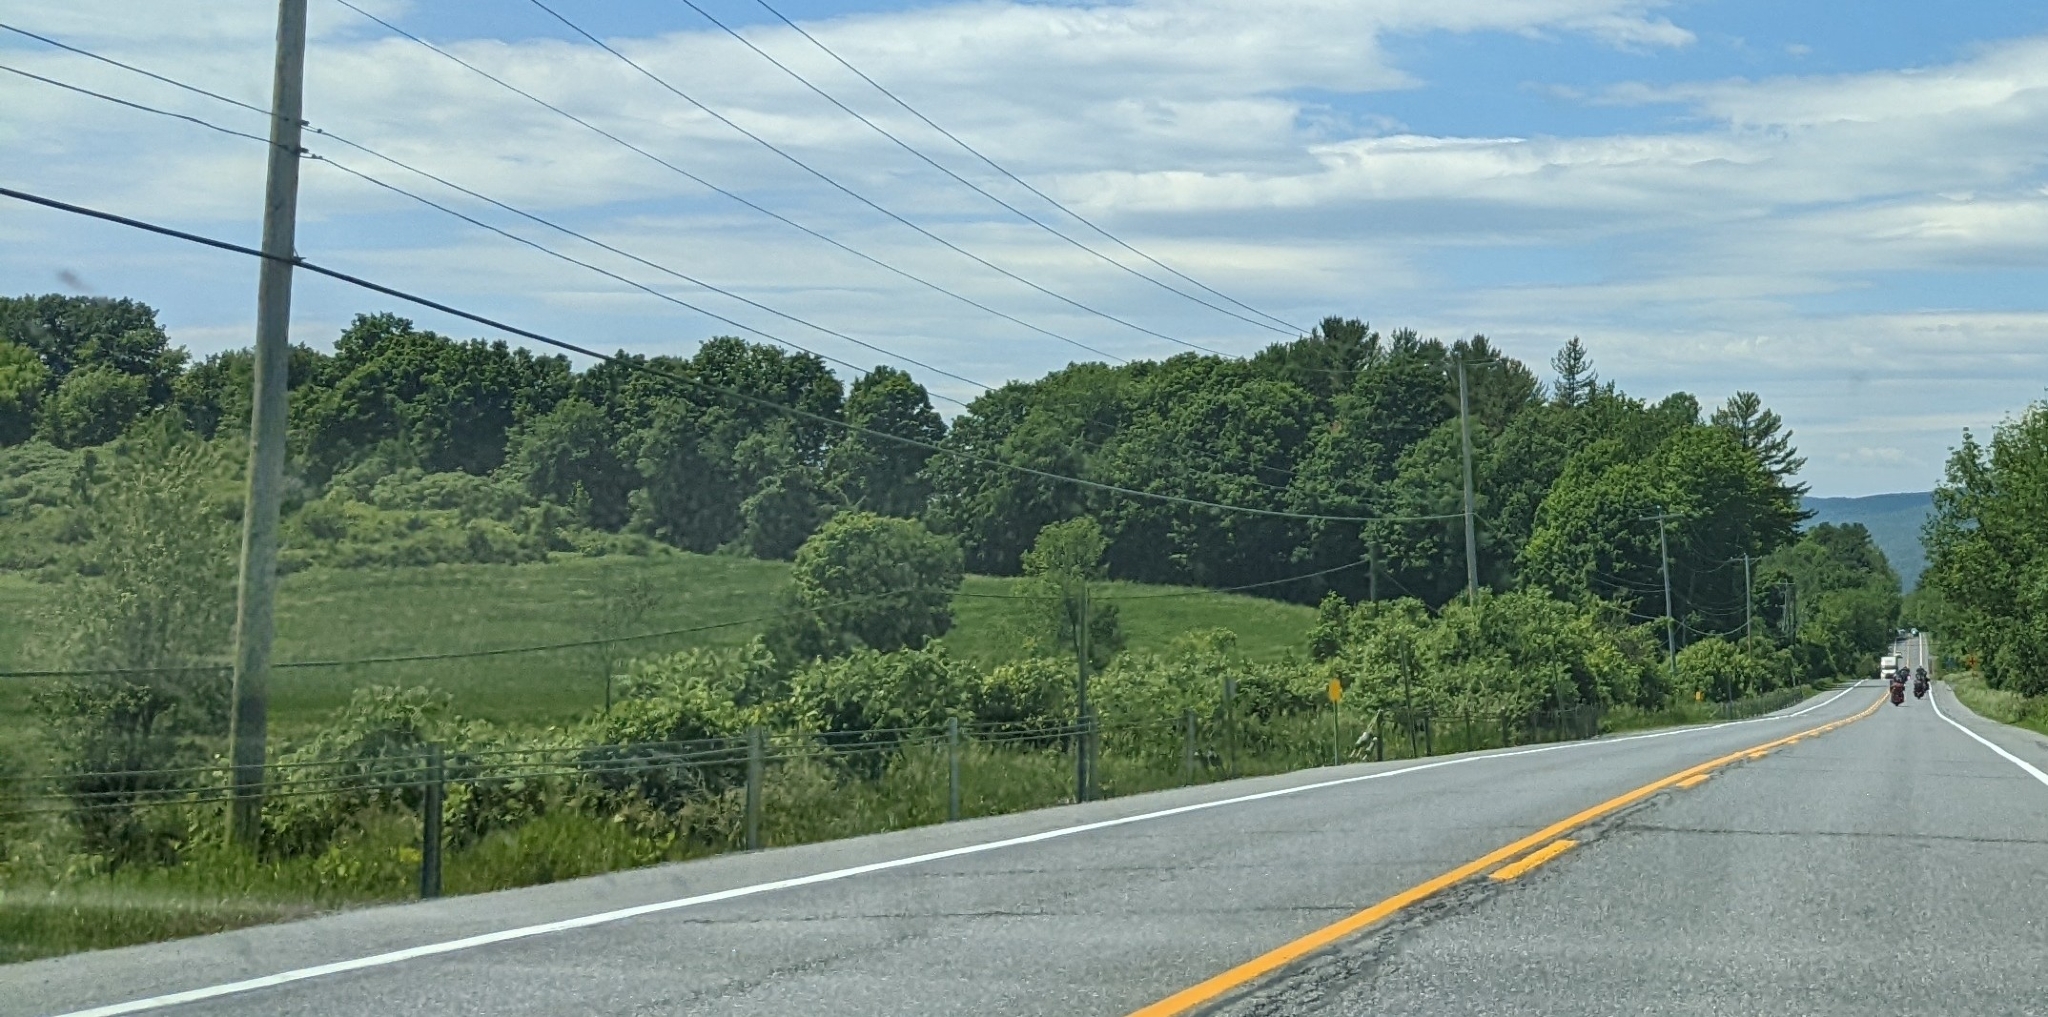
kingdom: Plantae
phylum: Tracheophyta
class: Pinopsida
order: Pinales
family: Pinaceae
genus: Pinus
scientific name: Pinus strobus
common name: Weymouth pine
